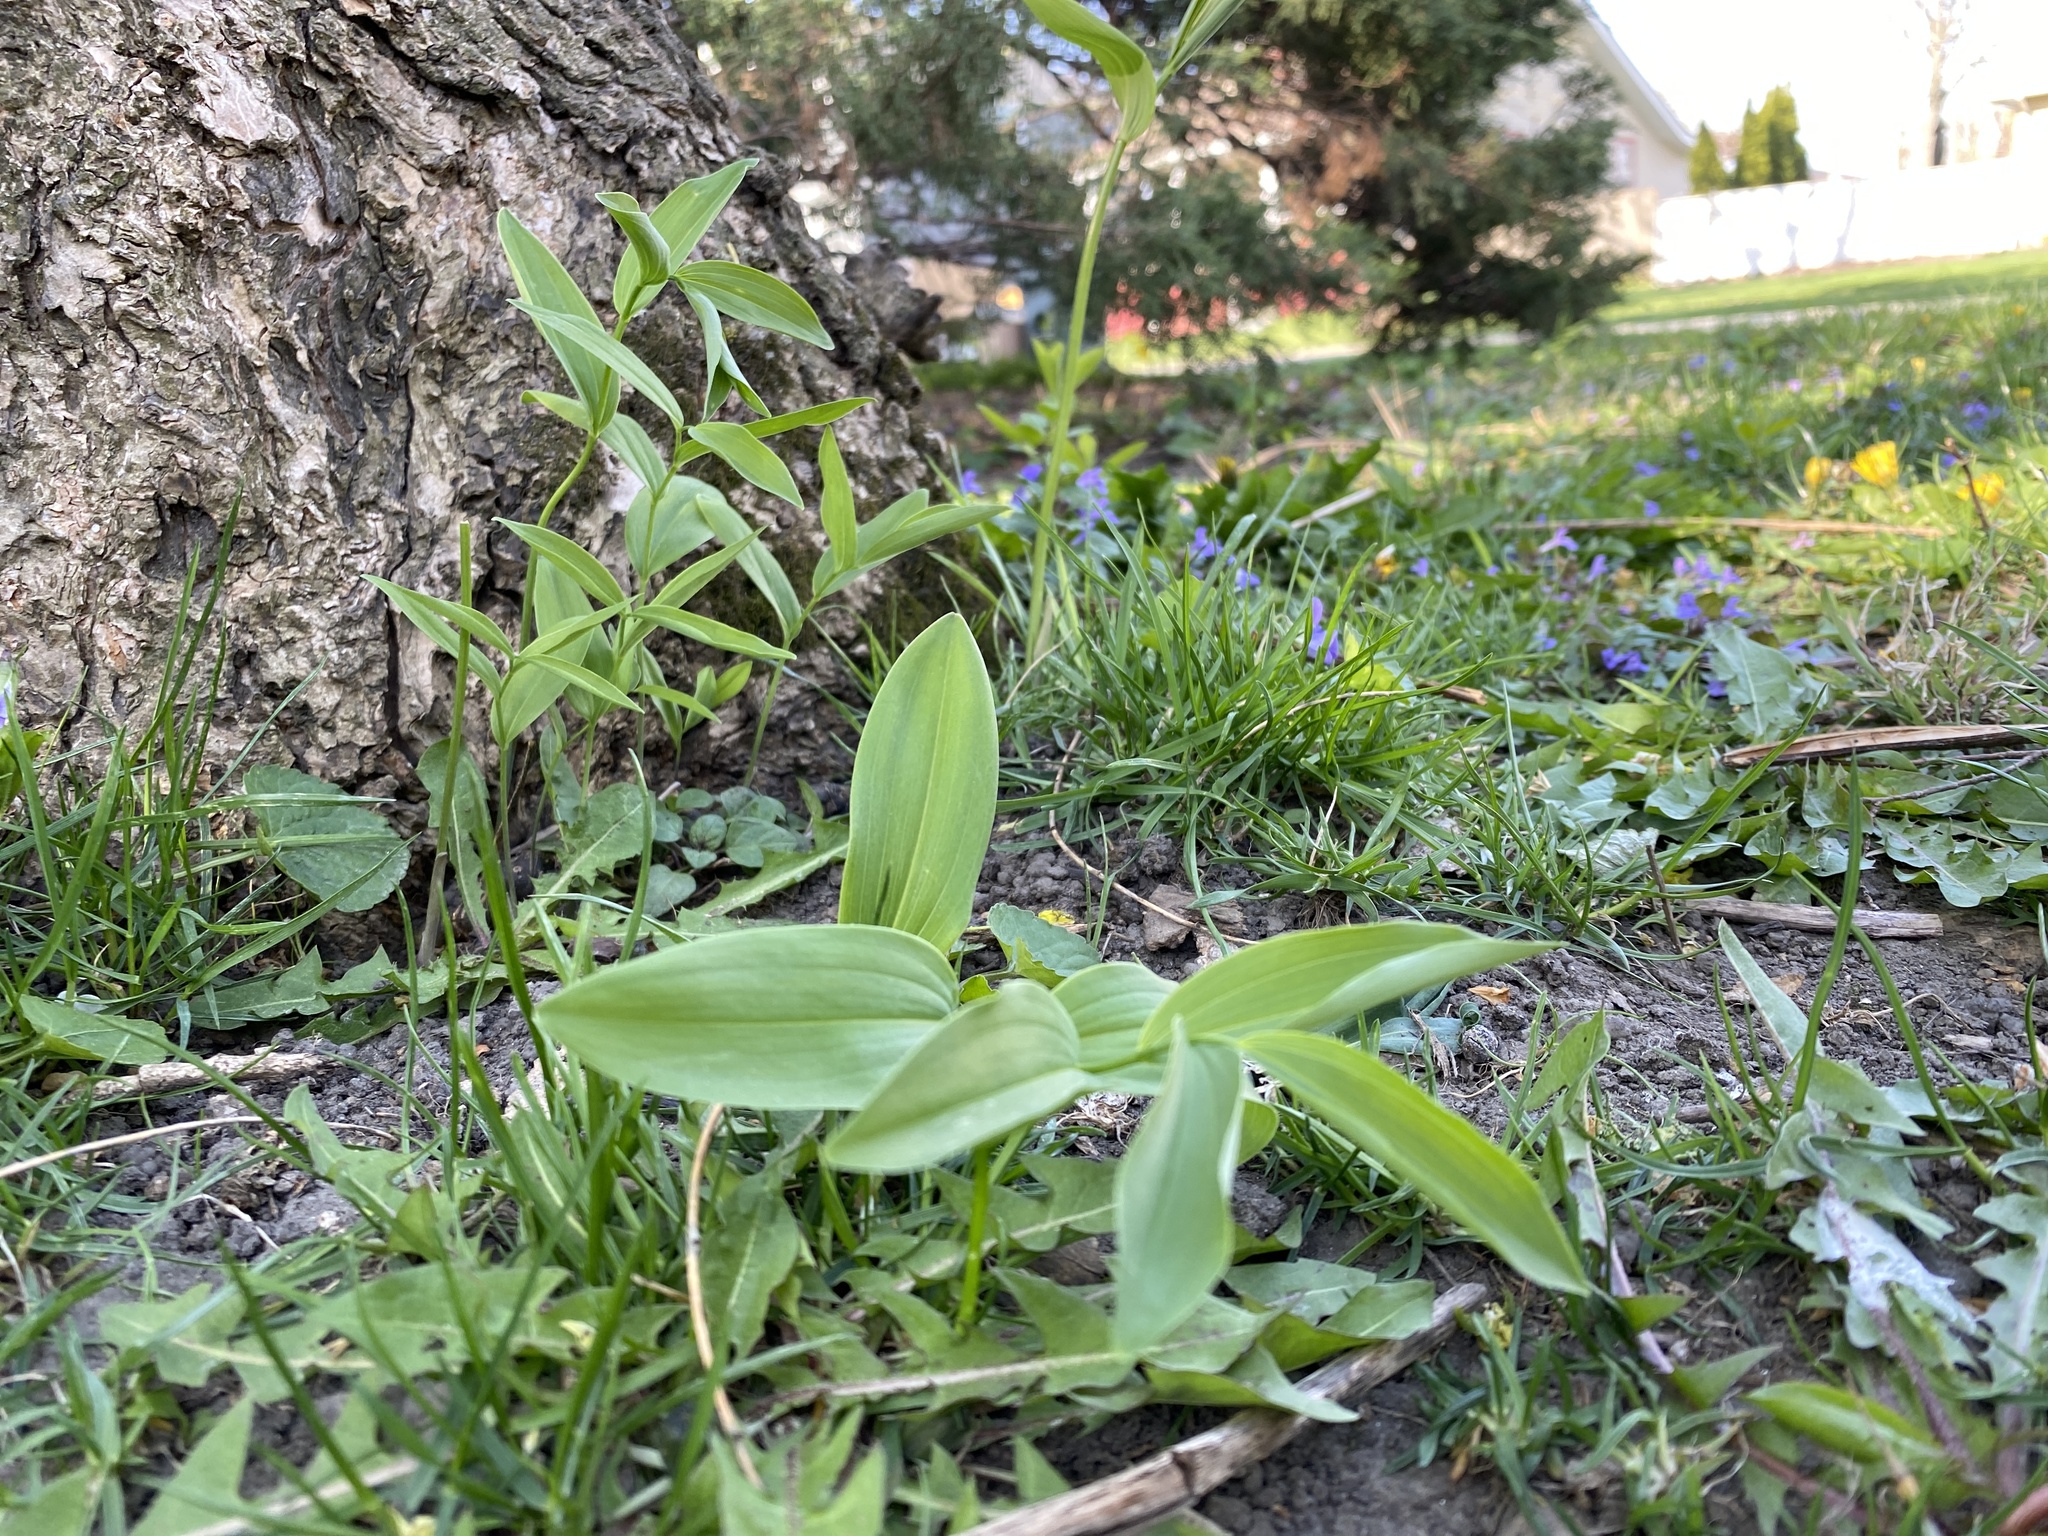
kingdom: Plantae
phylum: Tracheophyta
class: Liliopsida
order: Asparagales
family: Asparagaceae
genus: Polygonatum
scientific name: Polygonatum biflorum
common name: American solomon's-seal
